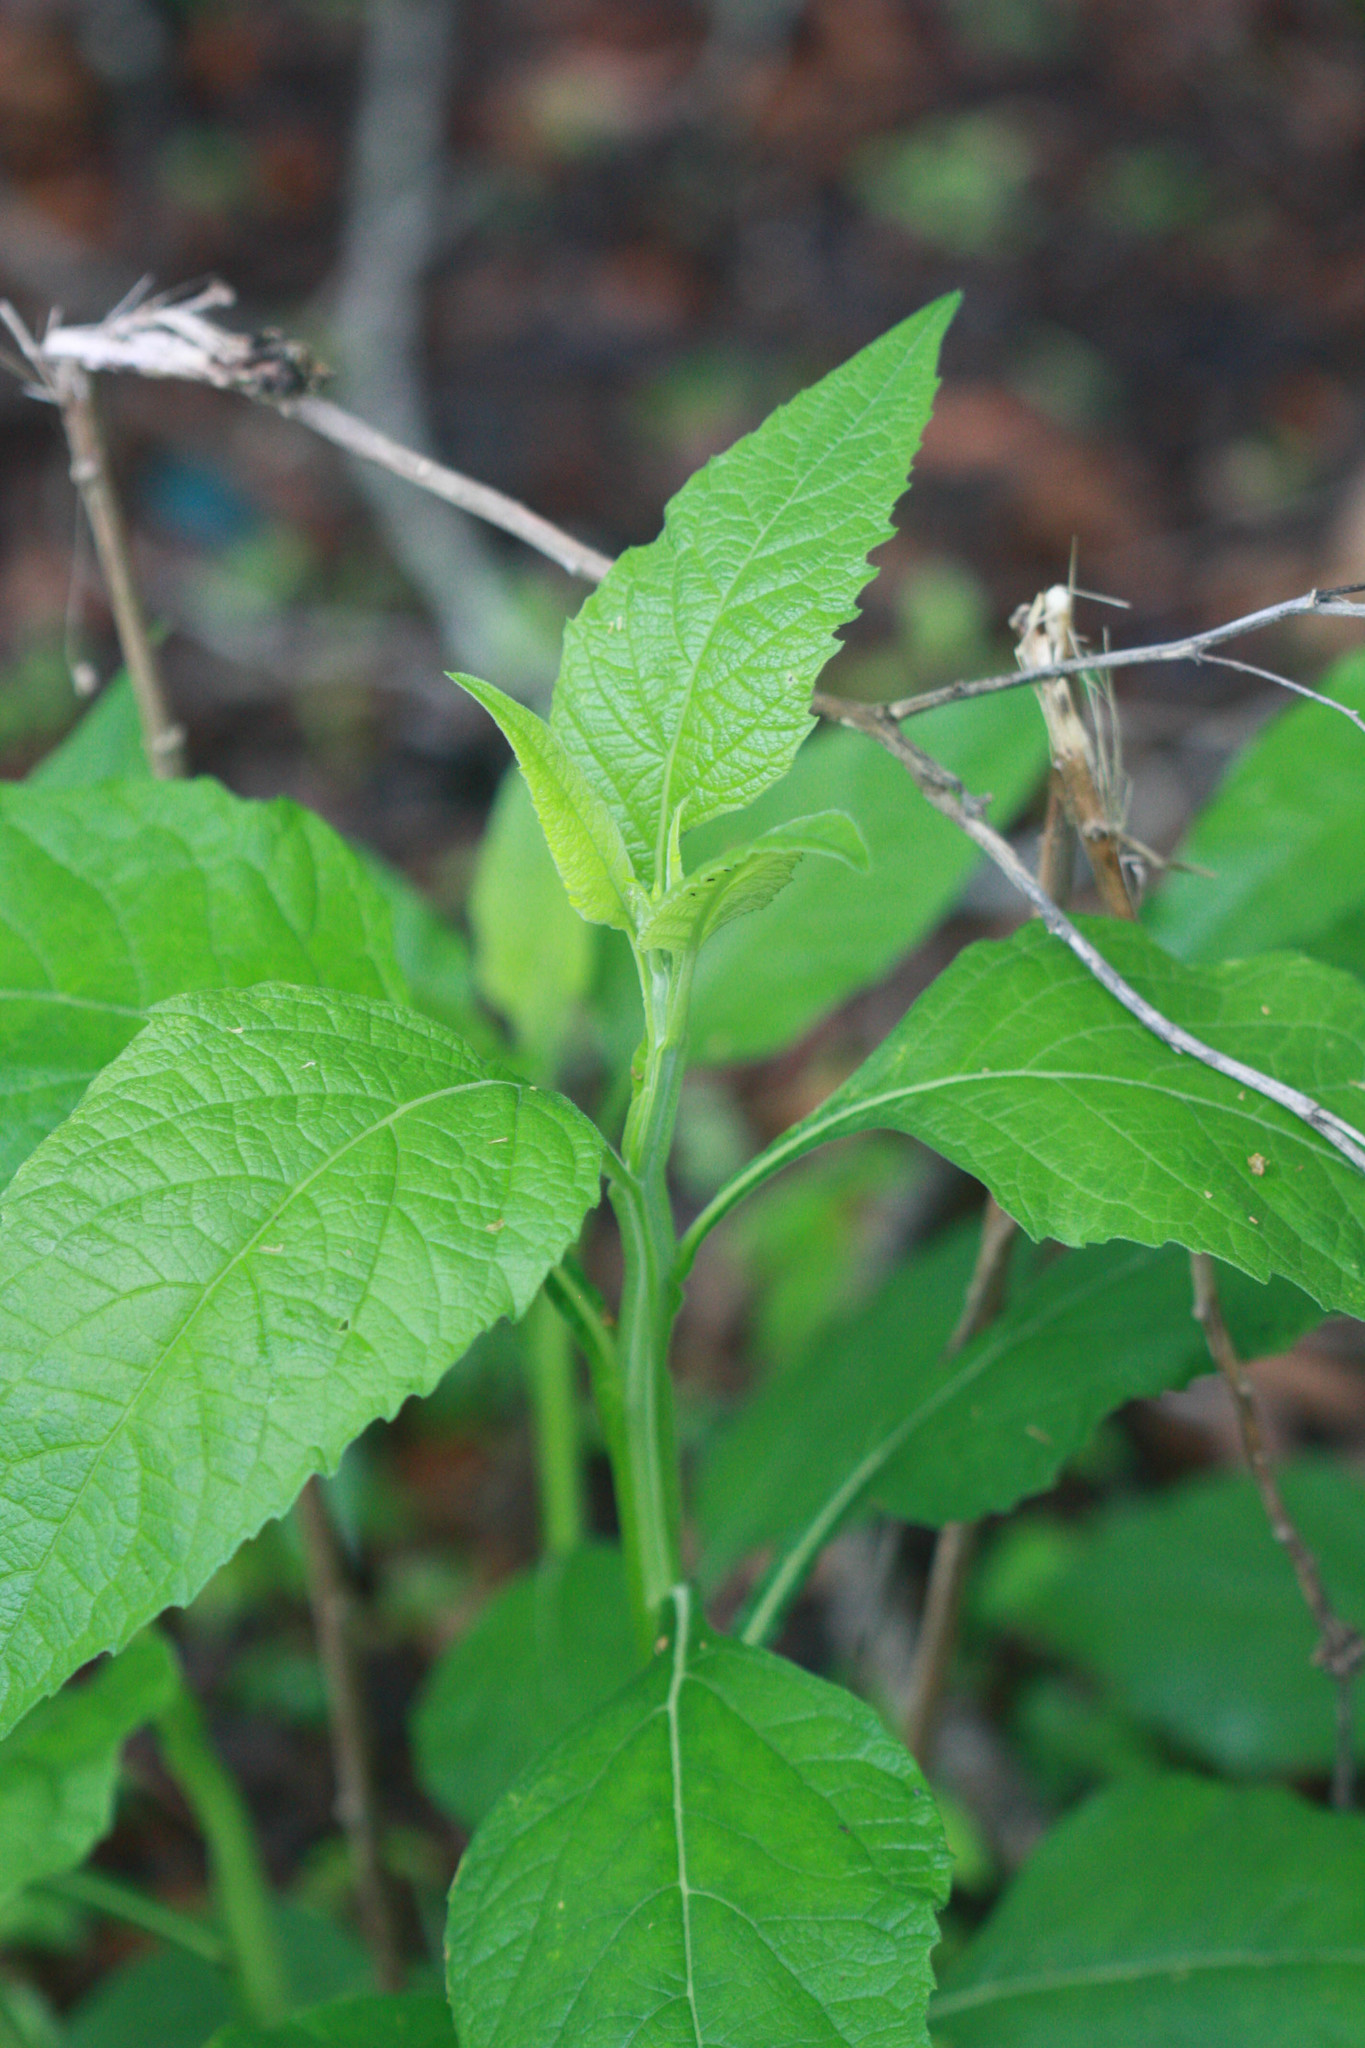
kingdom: Plantae
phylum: Tracheophyta
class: Magnoliopsida
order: Asterales
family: Asteraceae
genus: Verbesina
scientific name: Verbesina virginica
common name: Frostweed
